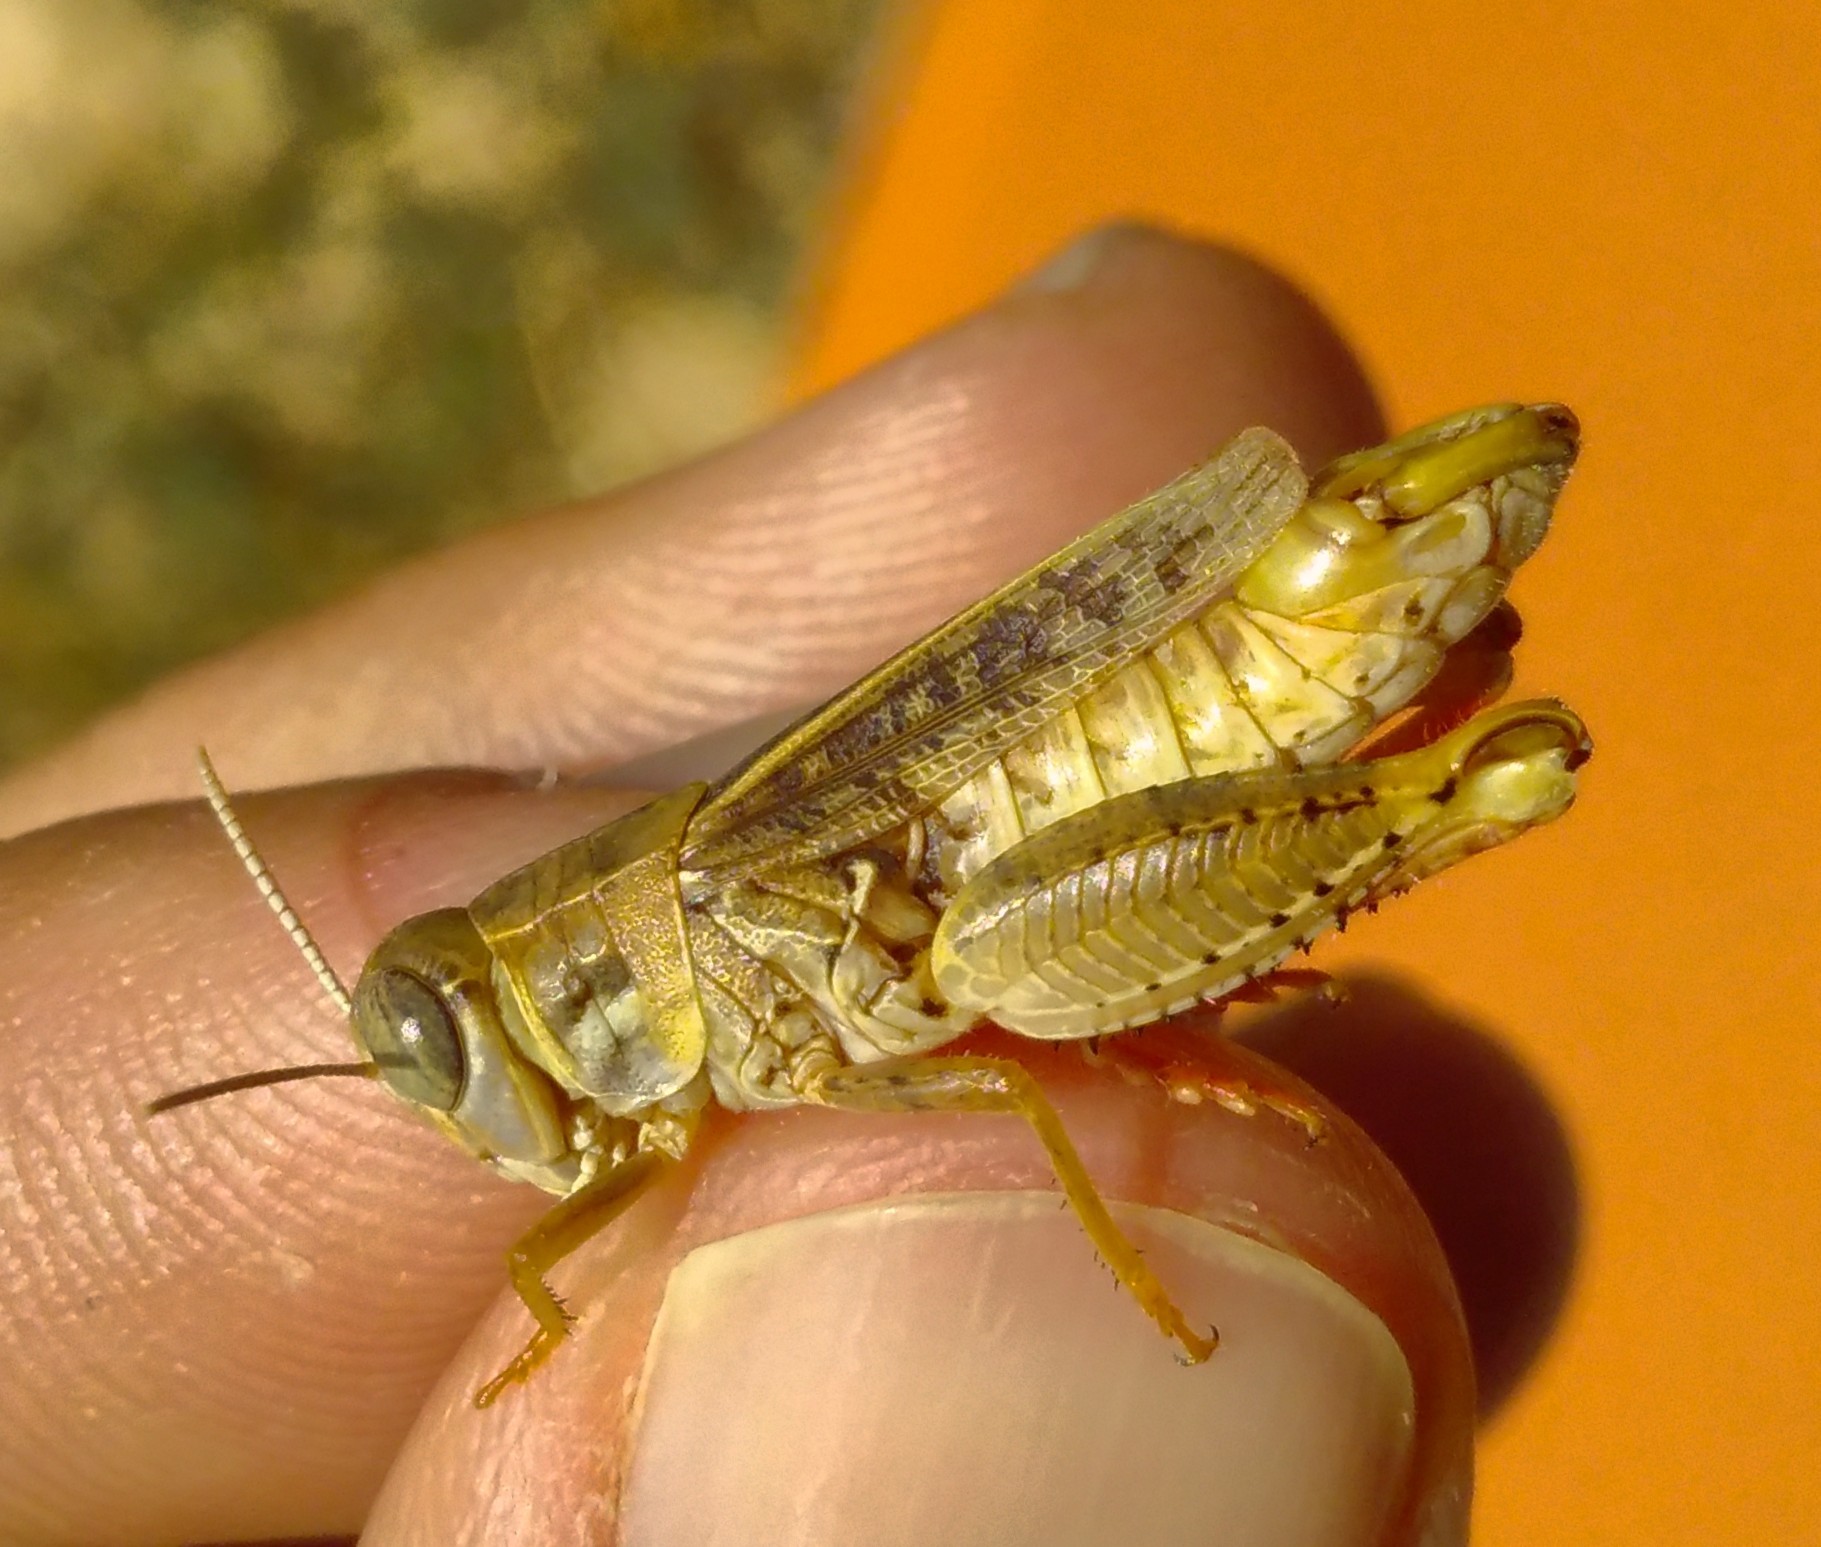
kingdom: Animalia
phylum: Arthropoda
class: Insecta
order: Orthoptera
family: Acrididae
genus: Calliptamus
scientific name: Calliptamus barbarus
